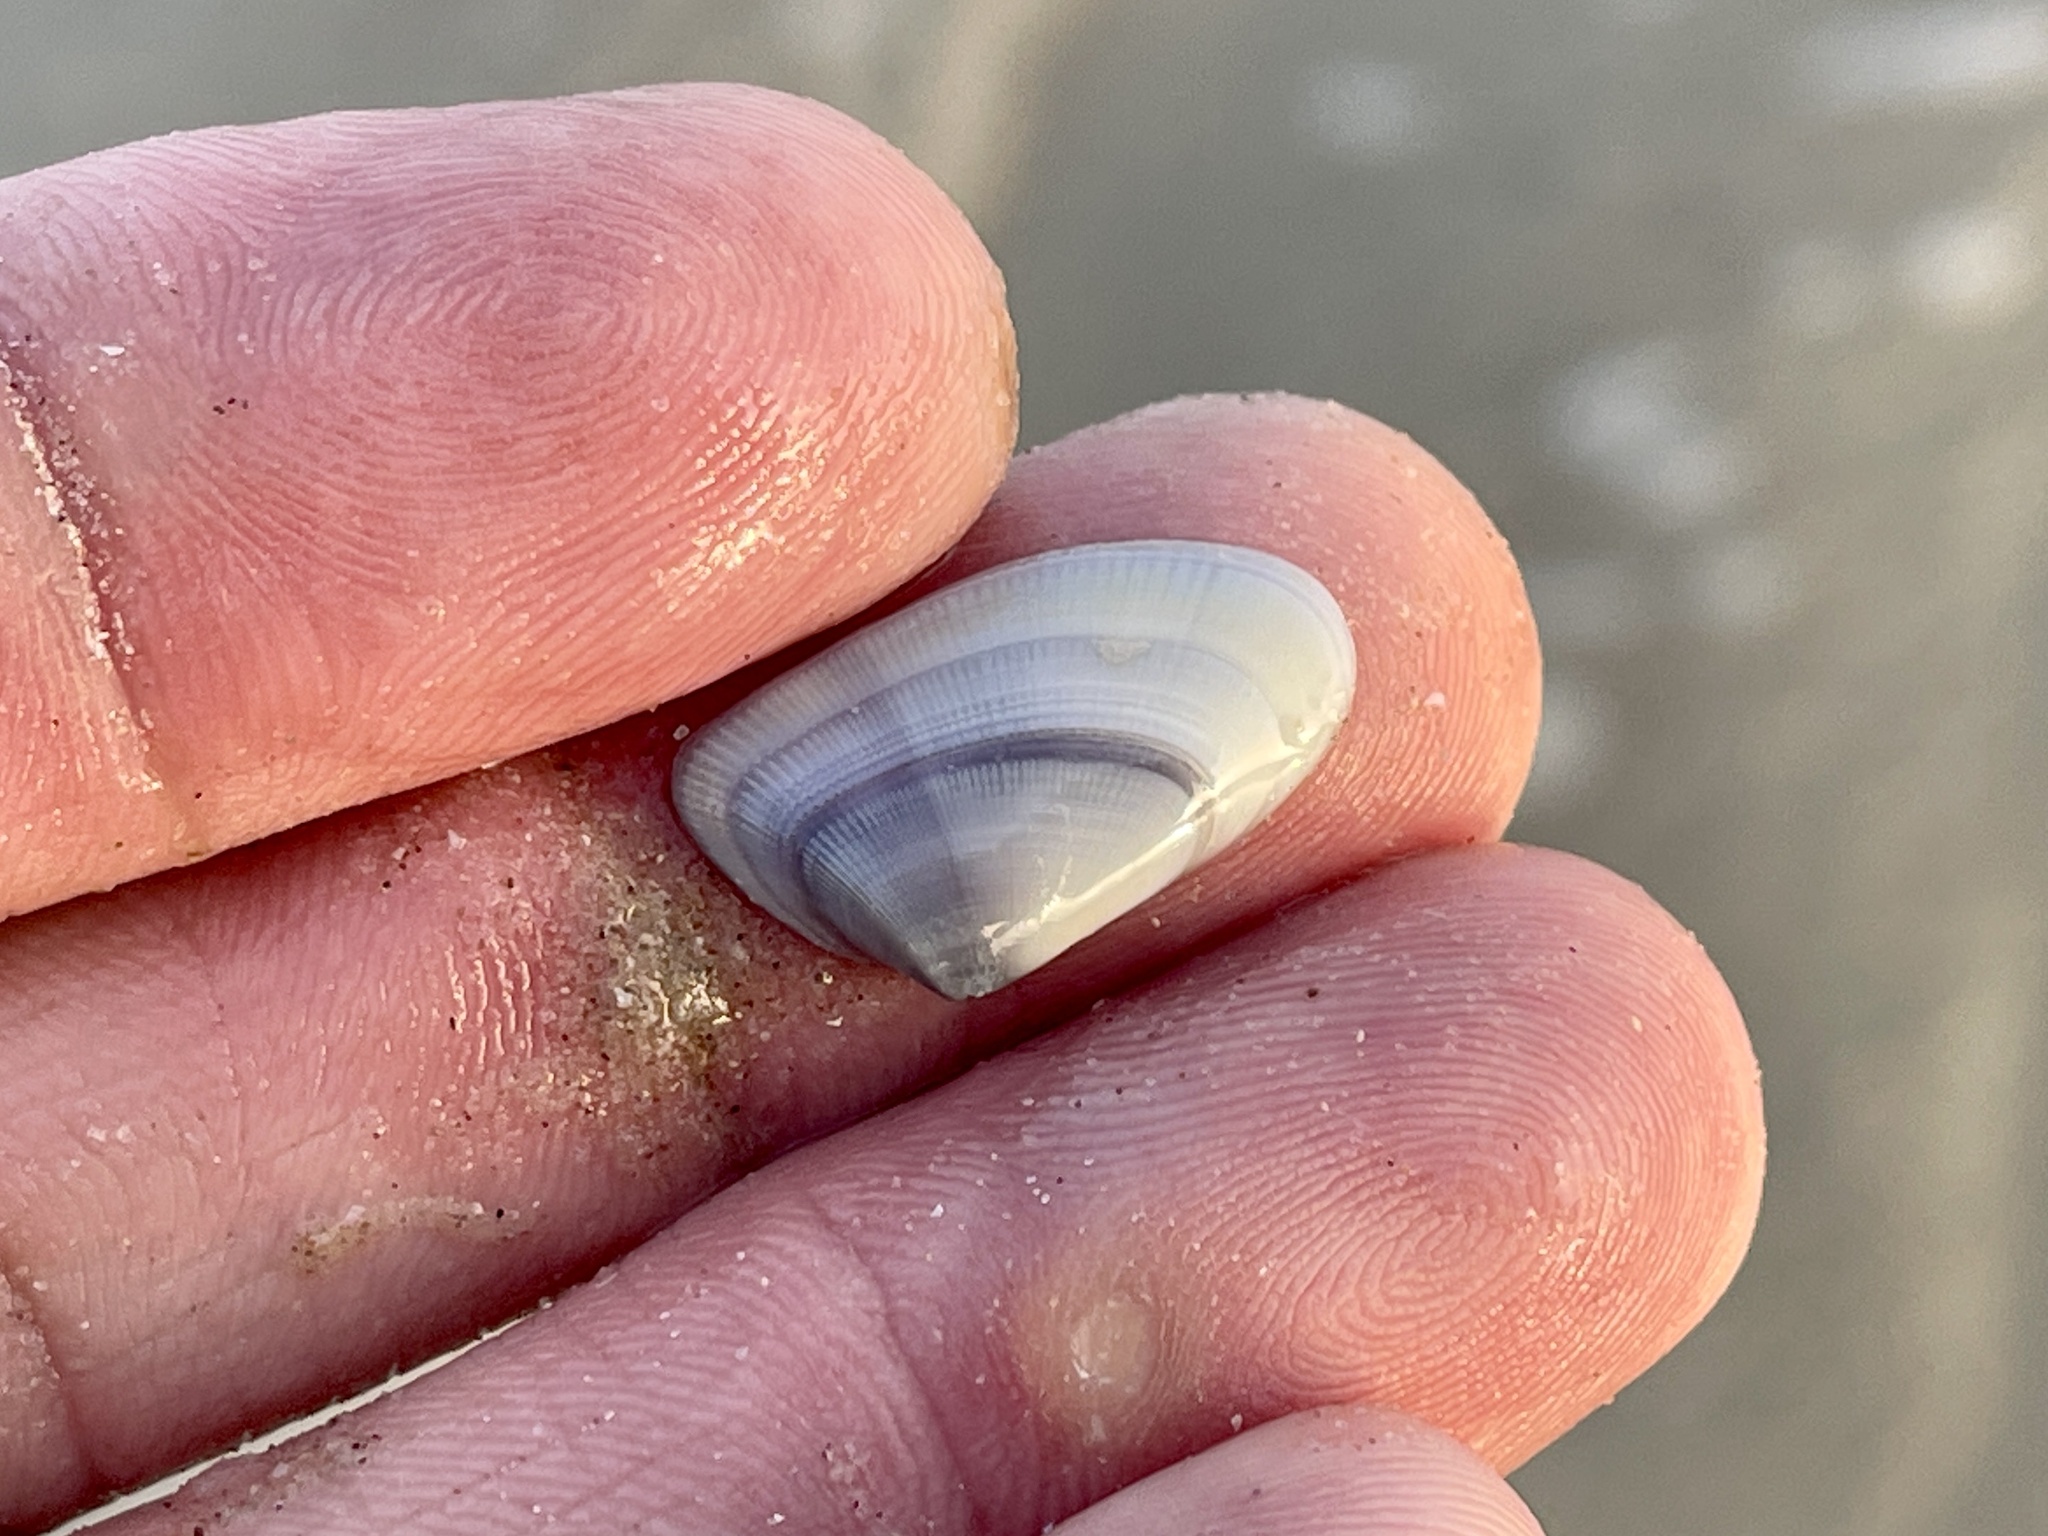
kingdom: Animalia
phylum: Mollusca
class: Bivalvia
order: Cardiida
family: Donacidae
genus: Donax
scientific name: Donax variabilis
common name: Butterfly shell
